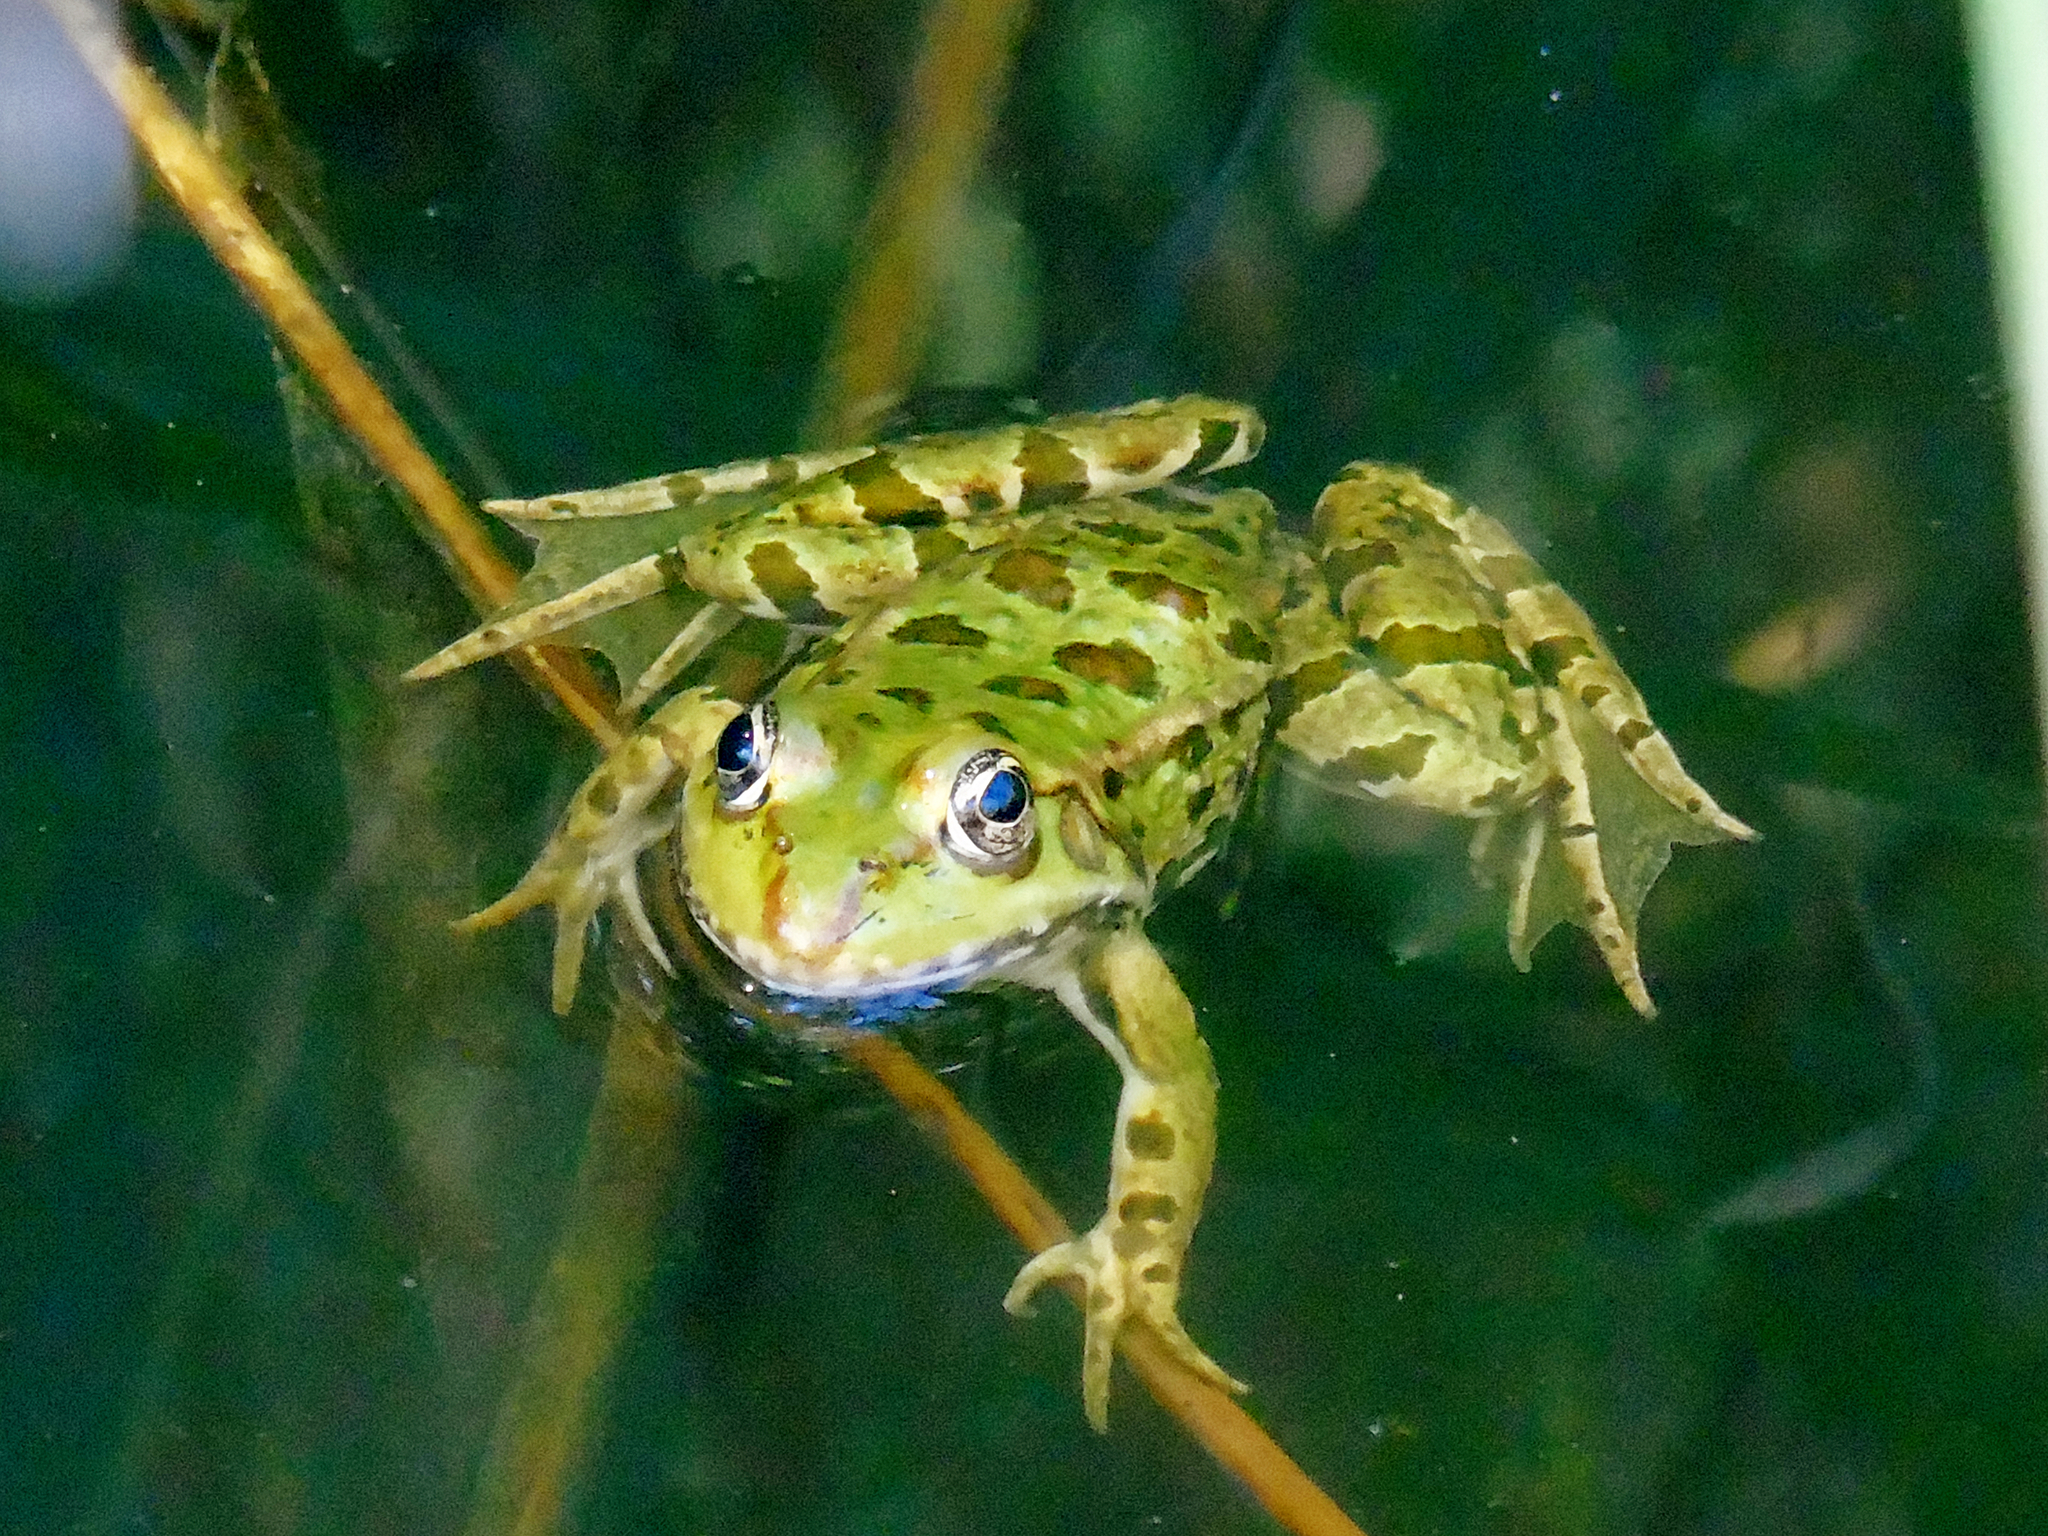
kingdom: Animalia
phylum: Chordata
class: Amphibia
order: Anura
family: Ranidae
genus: Pelophylax
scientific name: Pelophylax ridibundus
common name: Marsh frog
